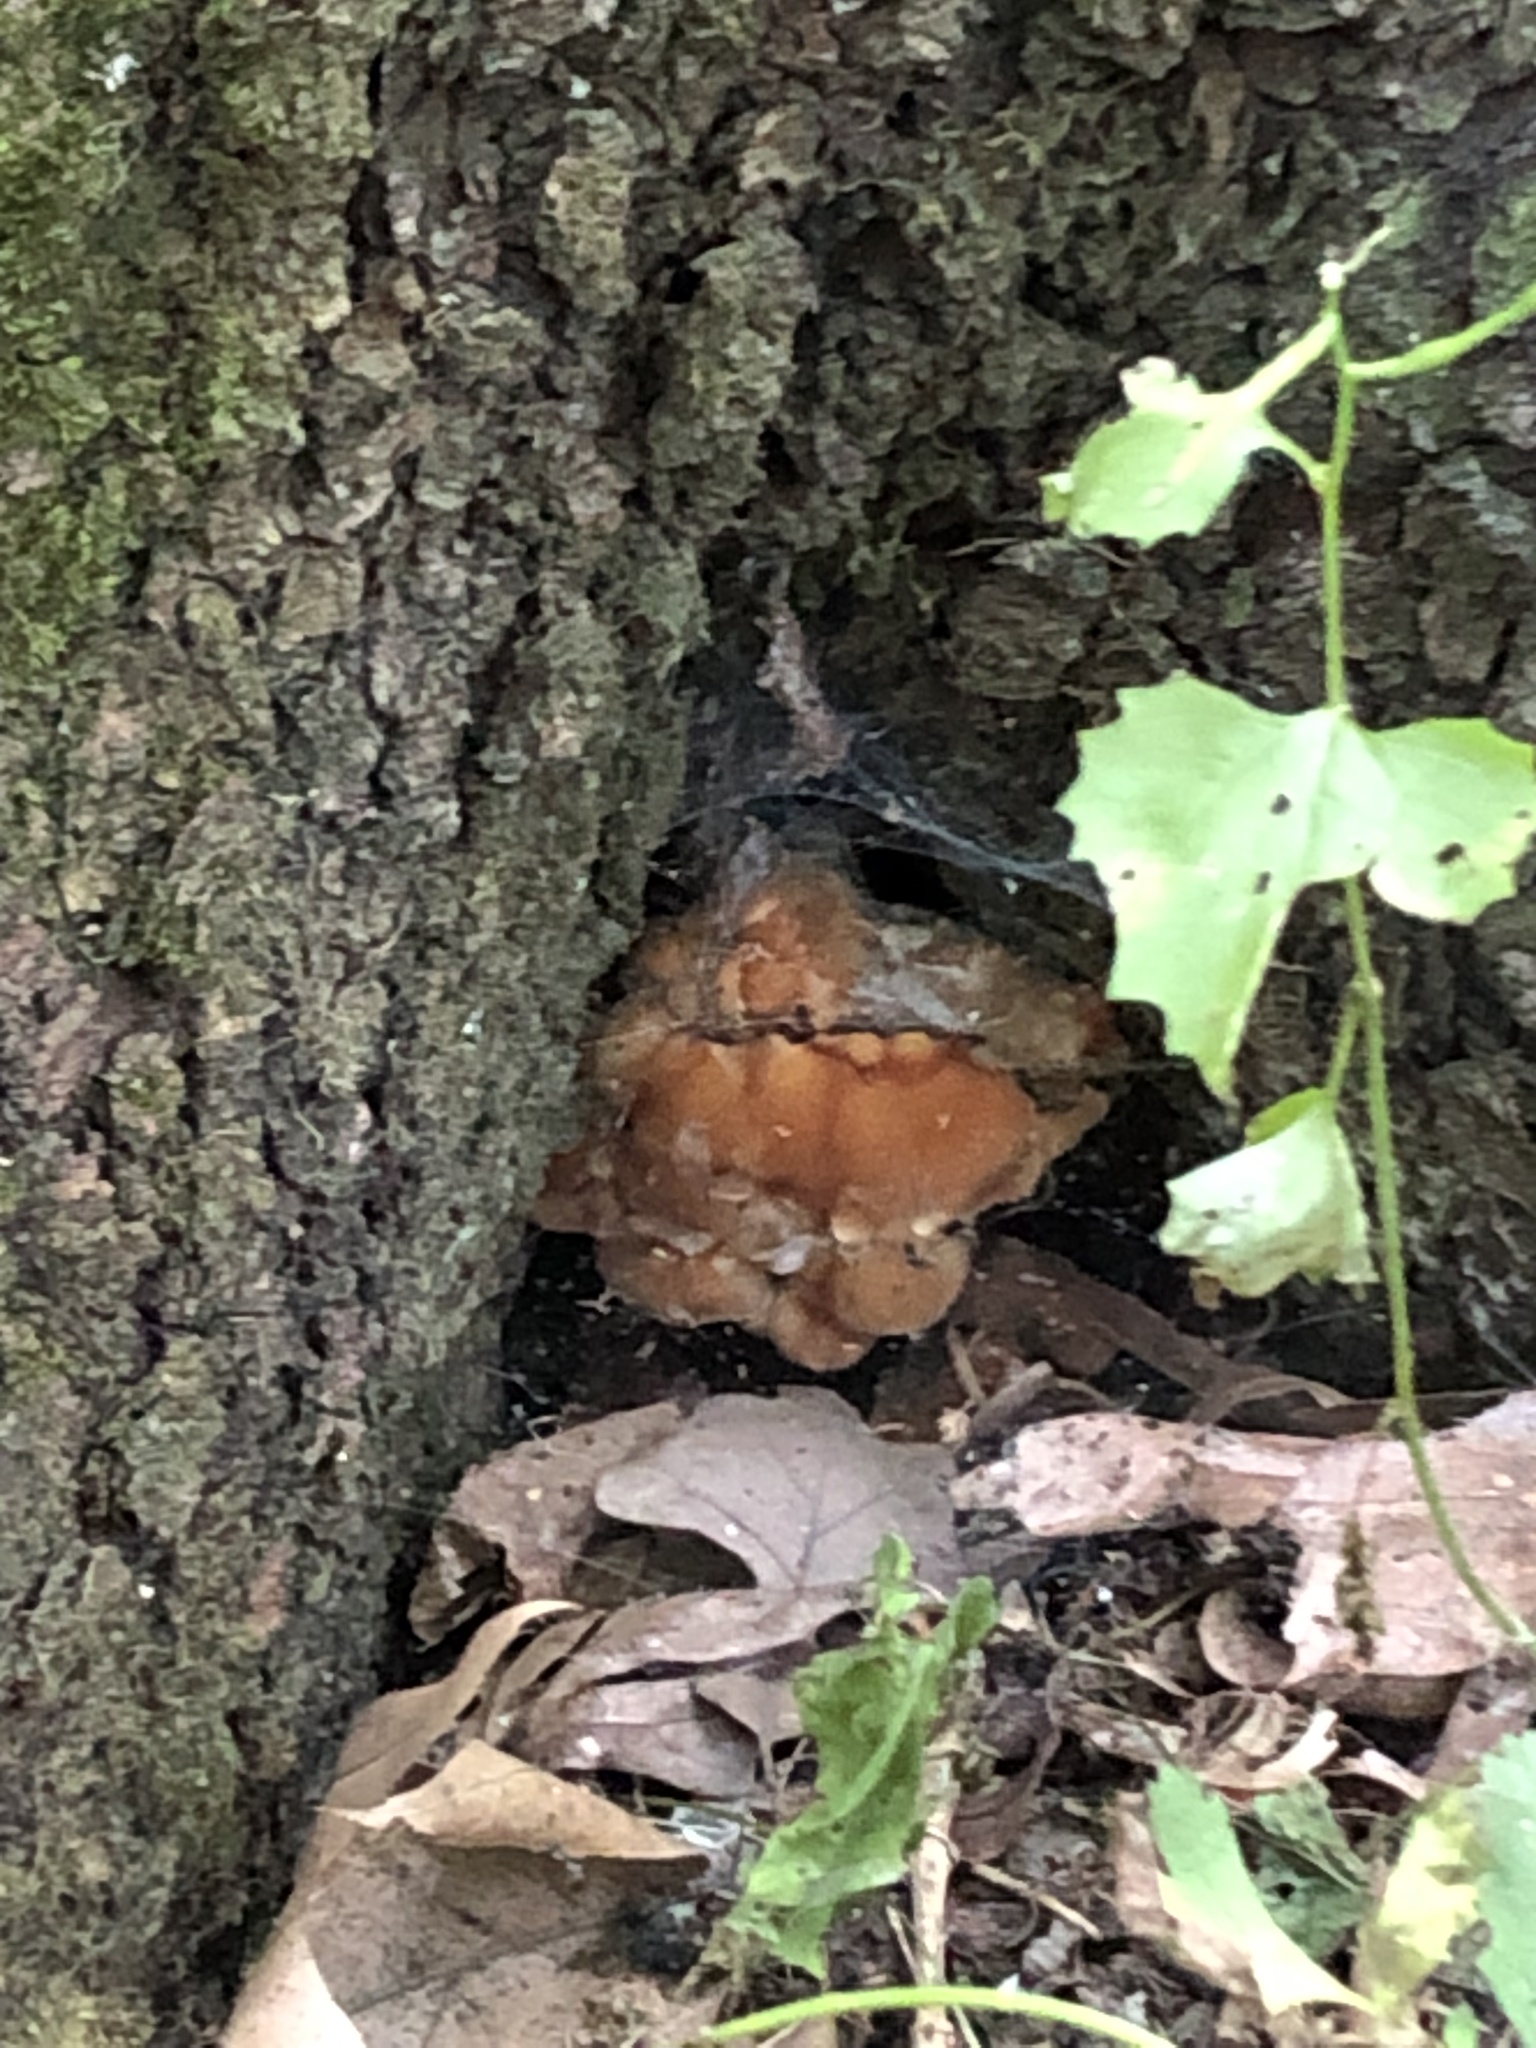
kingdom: Fungi
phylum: Basidiomycota
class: Agaricomycetes
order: Polyporales
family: Fomitopsidaceae
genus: Niveoporofomes
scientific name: Niveoporofomes spraguei
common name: Green cheese polypore
